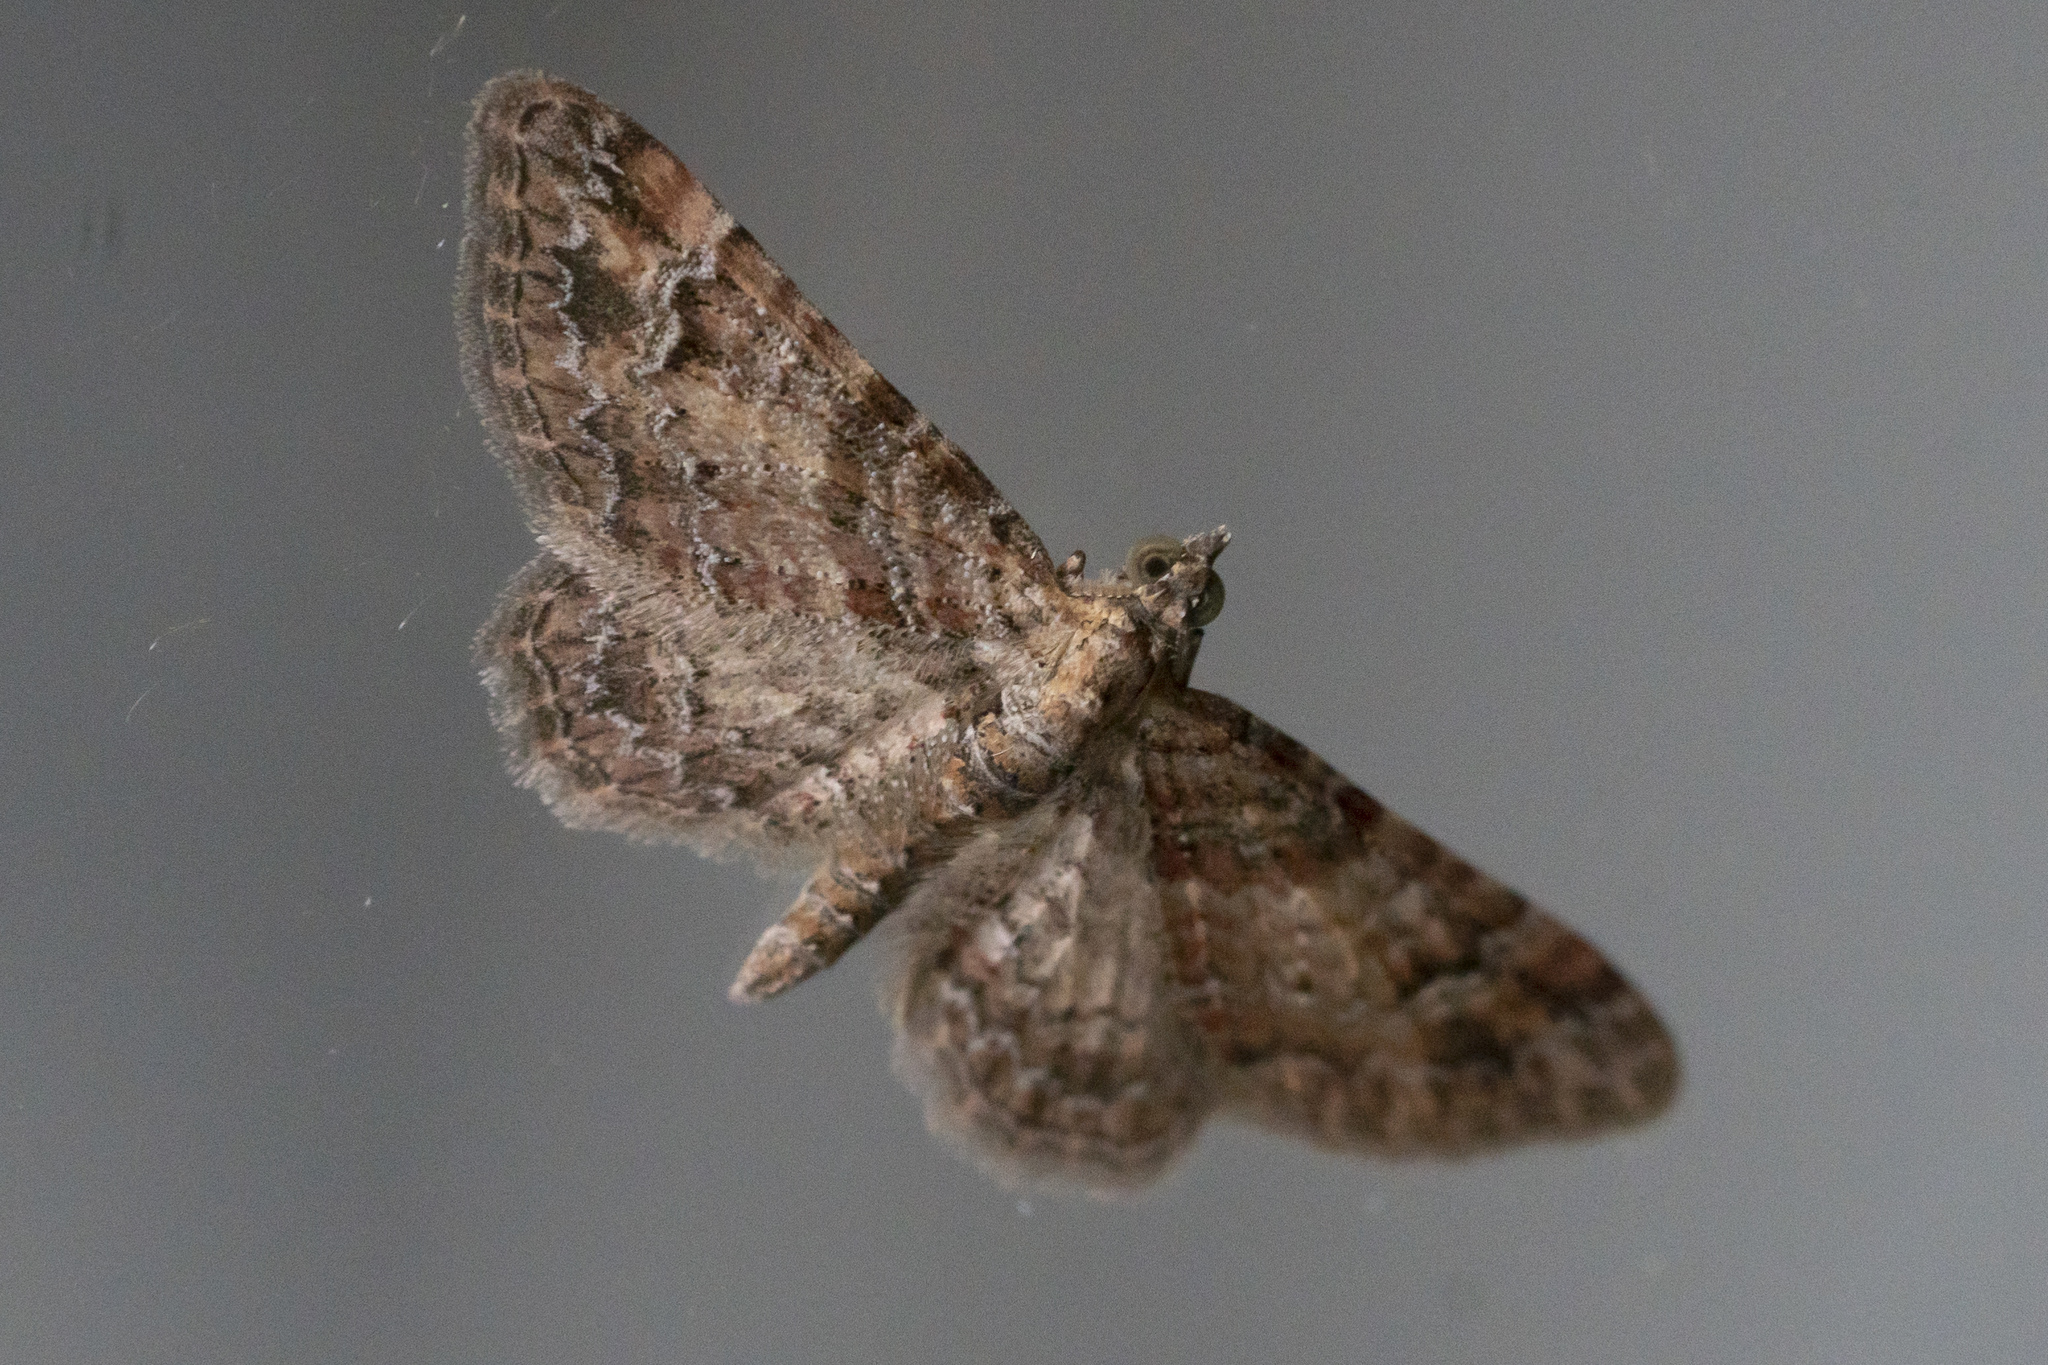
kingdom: Animalia
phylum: Arthropoda
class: Insecta
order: Lepidoptera
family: Geometridae
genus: Gymnoscelis
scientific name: Gymnoscelis rufifasciata
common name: Double-striped pug
